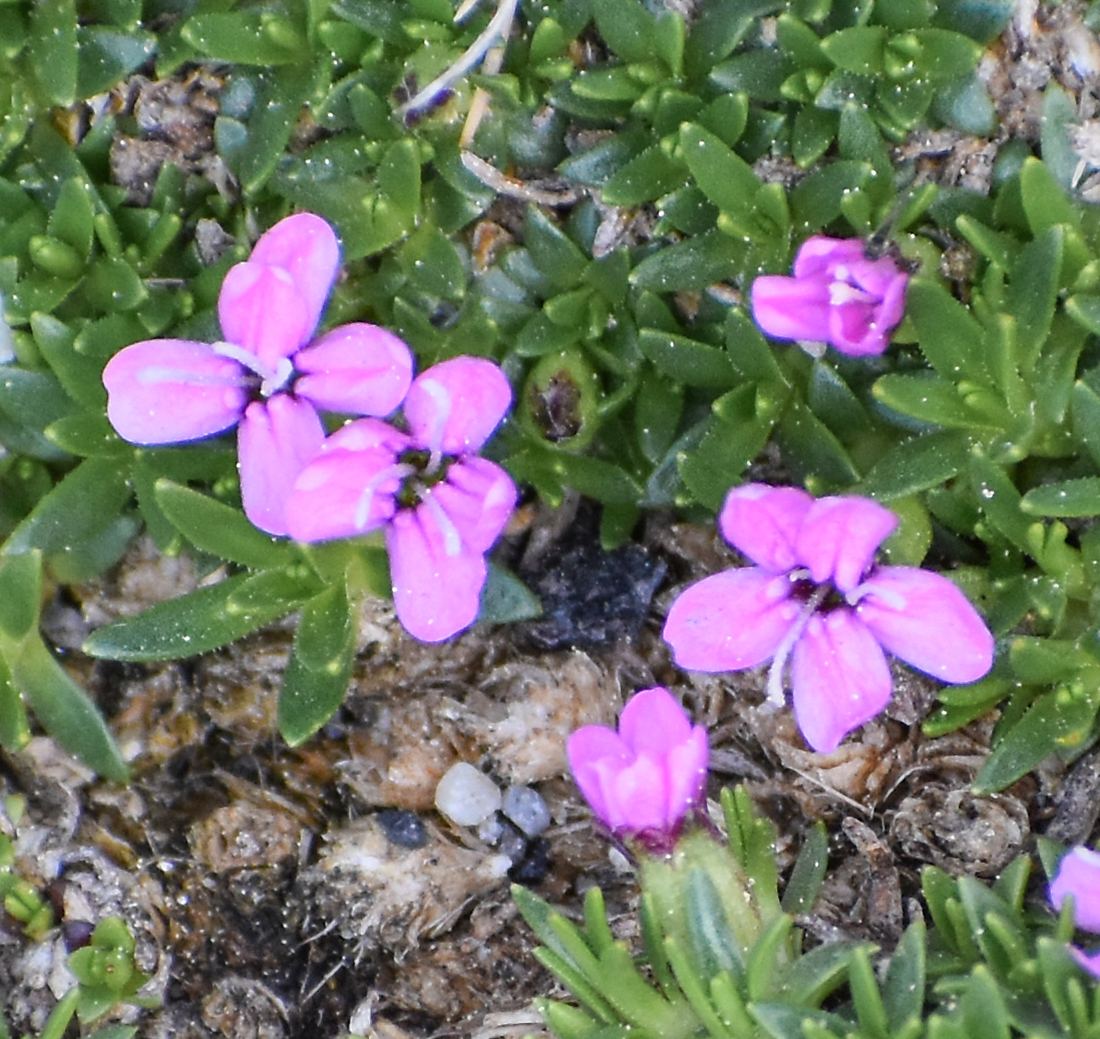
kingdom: Plantae
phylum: Tracheophyta
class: Magnoliopsida
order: Caryophyllales
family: Caryophyllaceae
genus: Silene
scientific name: Silene acaulis
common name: Moss campion
